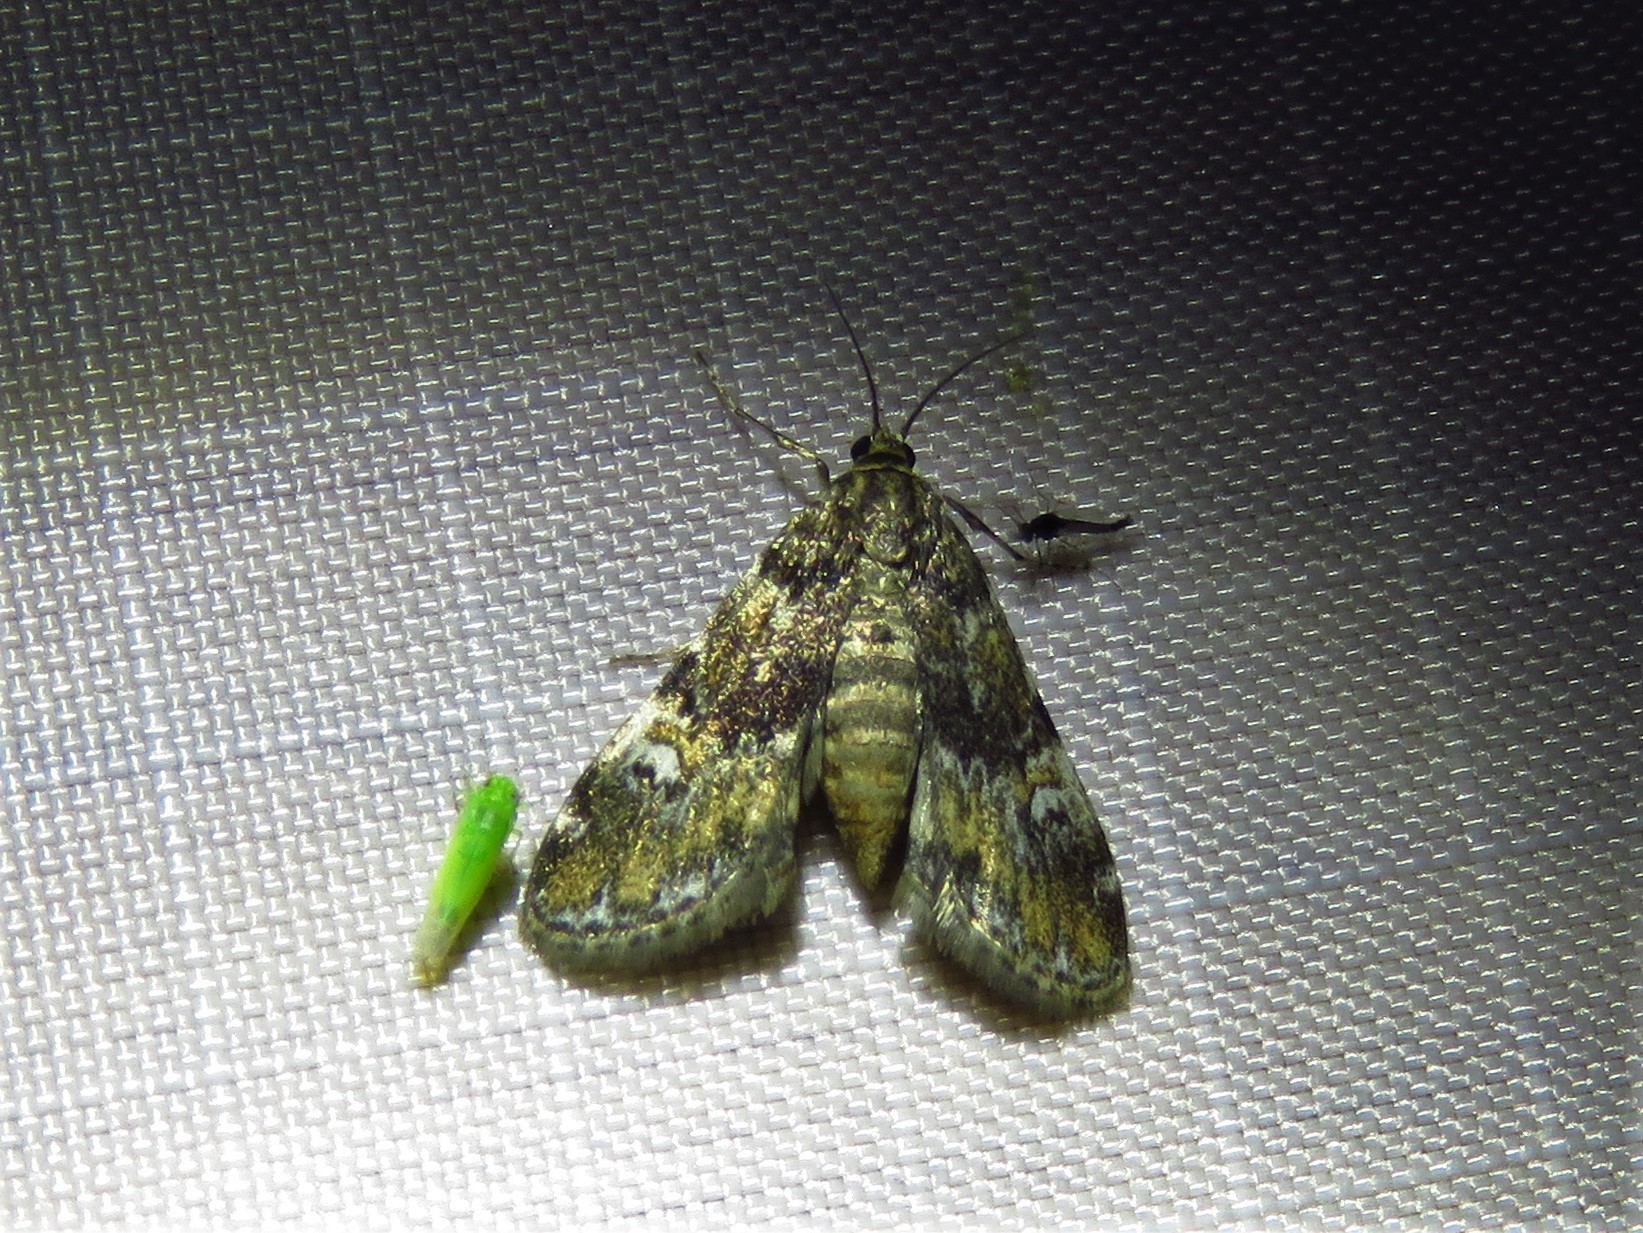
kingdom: Animalia
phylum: Arthropoda
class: Insecta
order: Lepidoptera
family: Crambidae
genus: Elophila
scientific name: Elophila obliteralis
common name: Waterlily leafcutter moth
